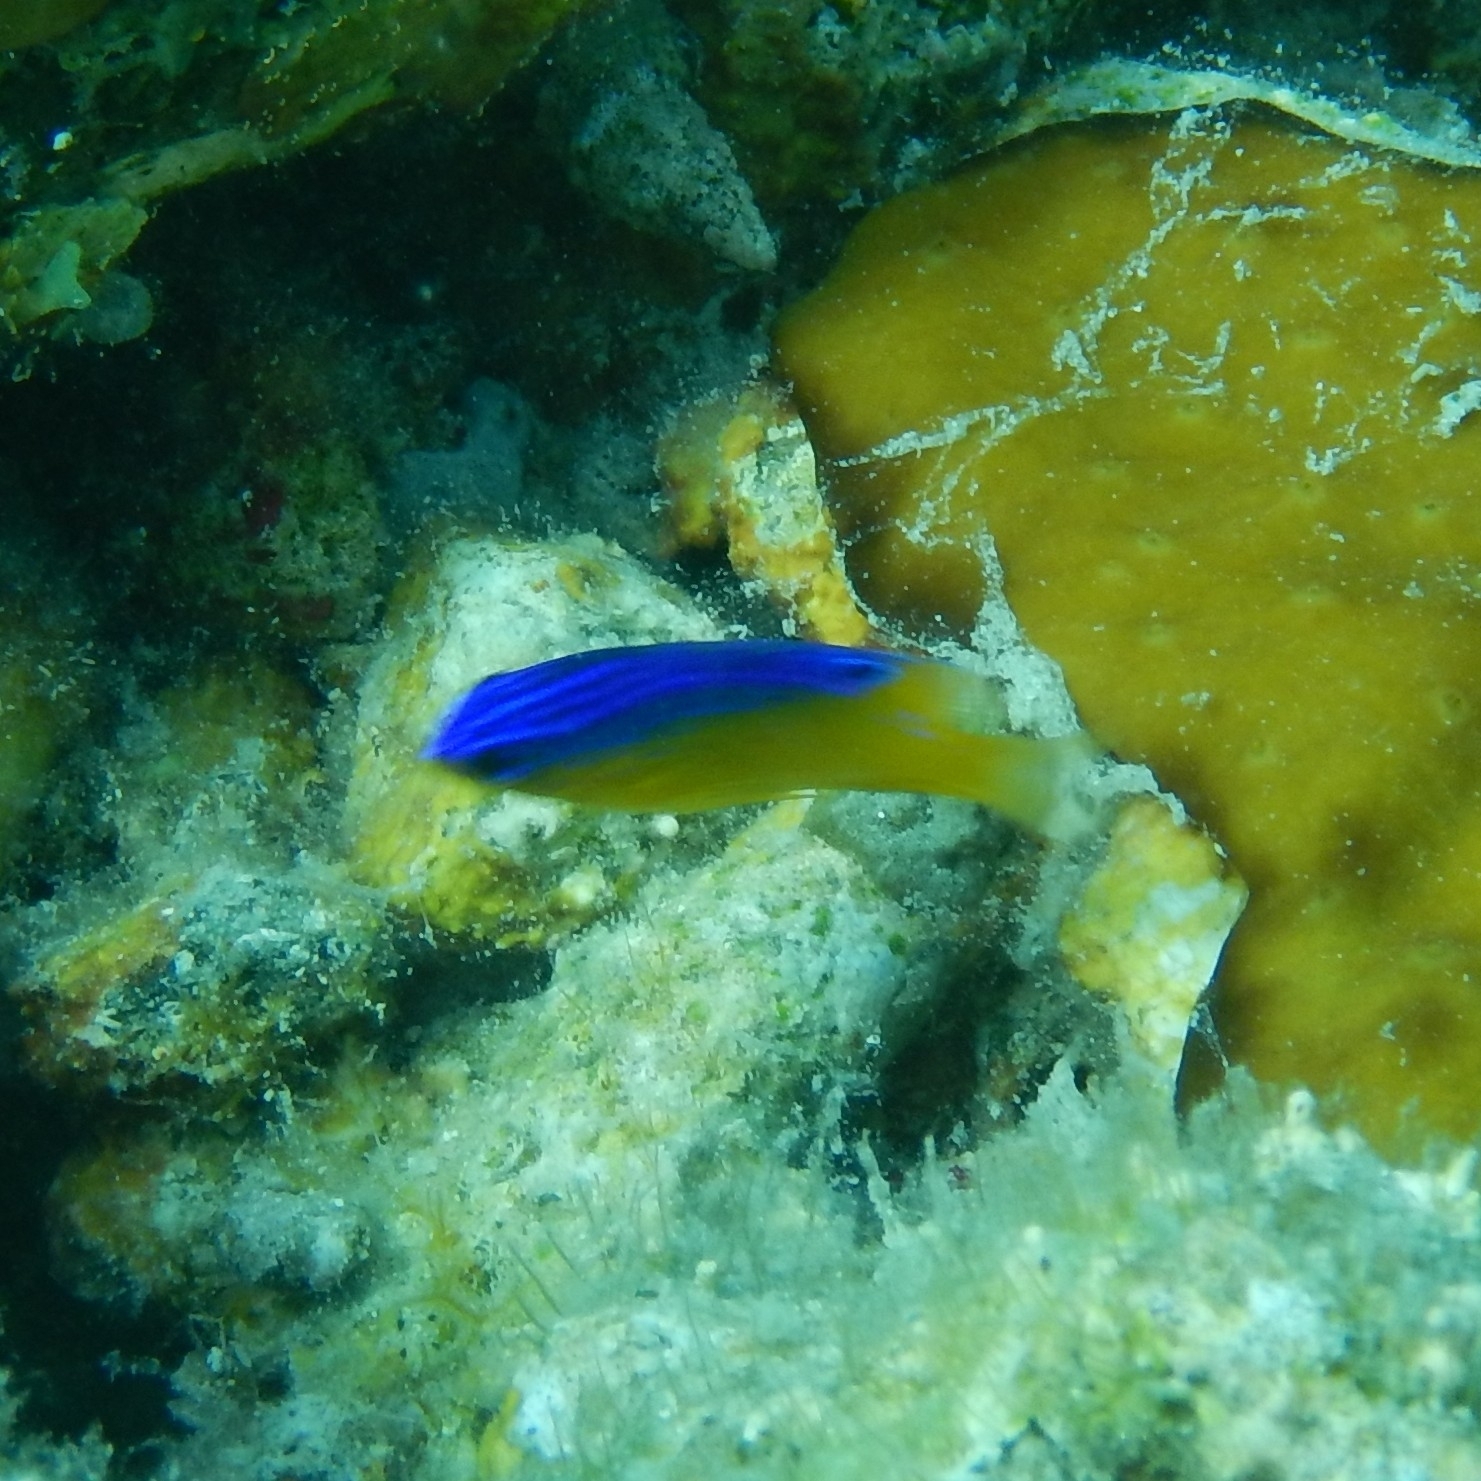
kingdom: Animalia
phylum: Chordata
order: Perciformes
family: Pomacentridae
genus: Stegastes
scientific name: Stegastes leucostictus
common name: Beaugregory
